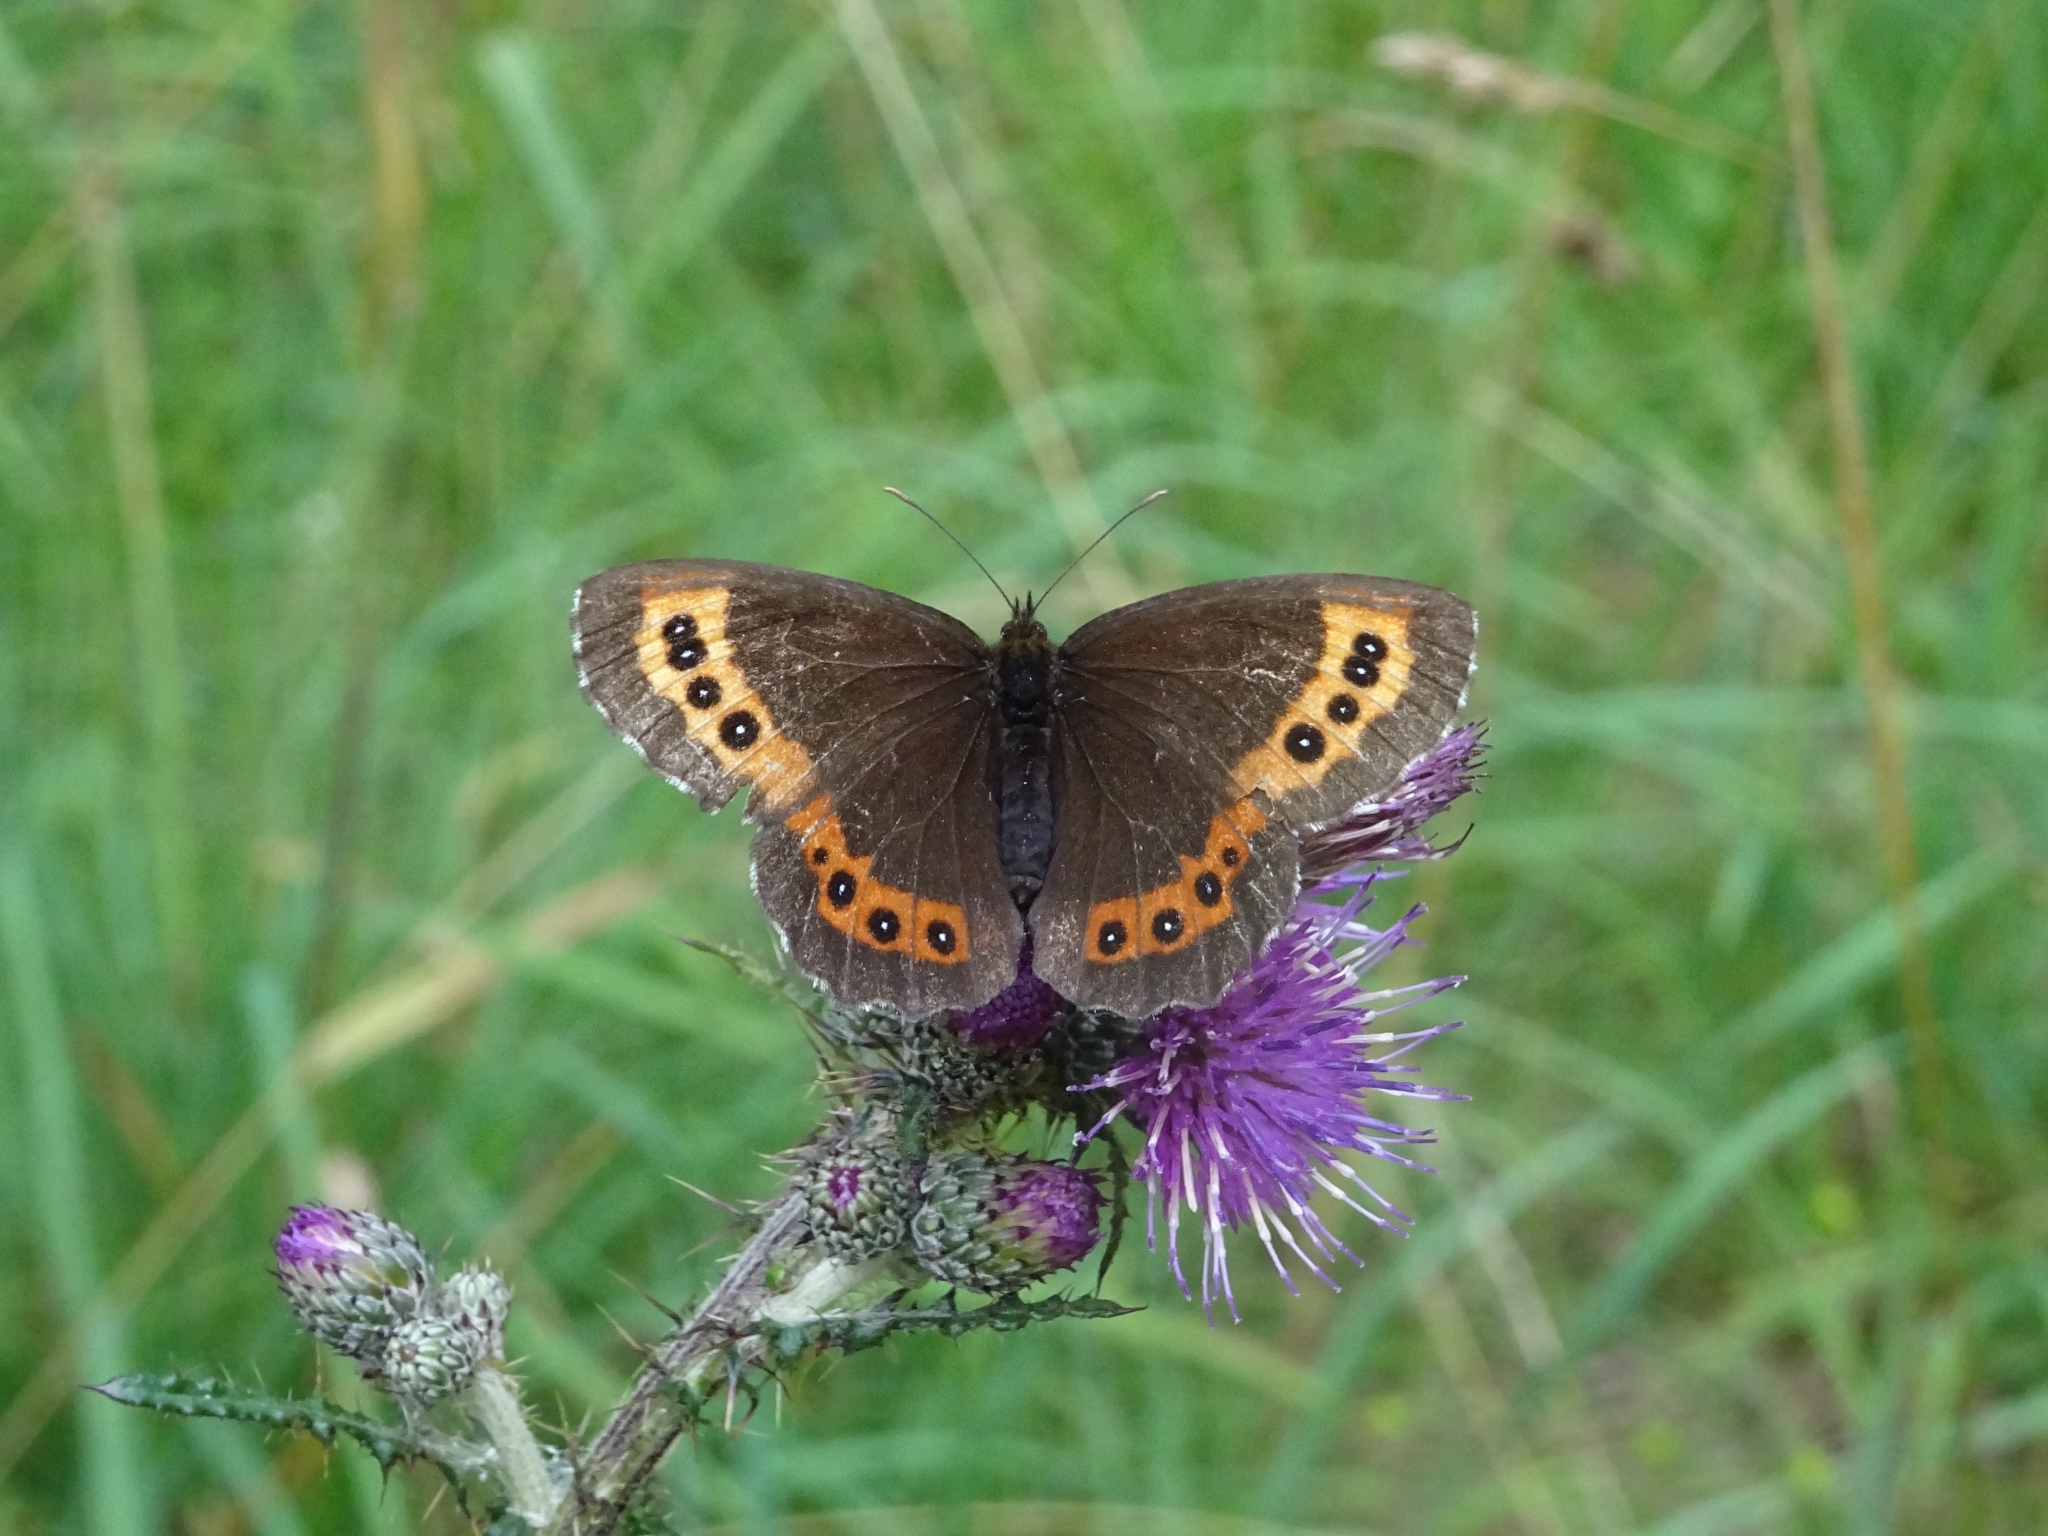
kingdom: Animalia
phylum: Arthropoda
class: Insecta
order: Lepidoptera
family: Nymphalidae
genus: Erebia
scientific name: Erebia ligea
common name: Arran brown
